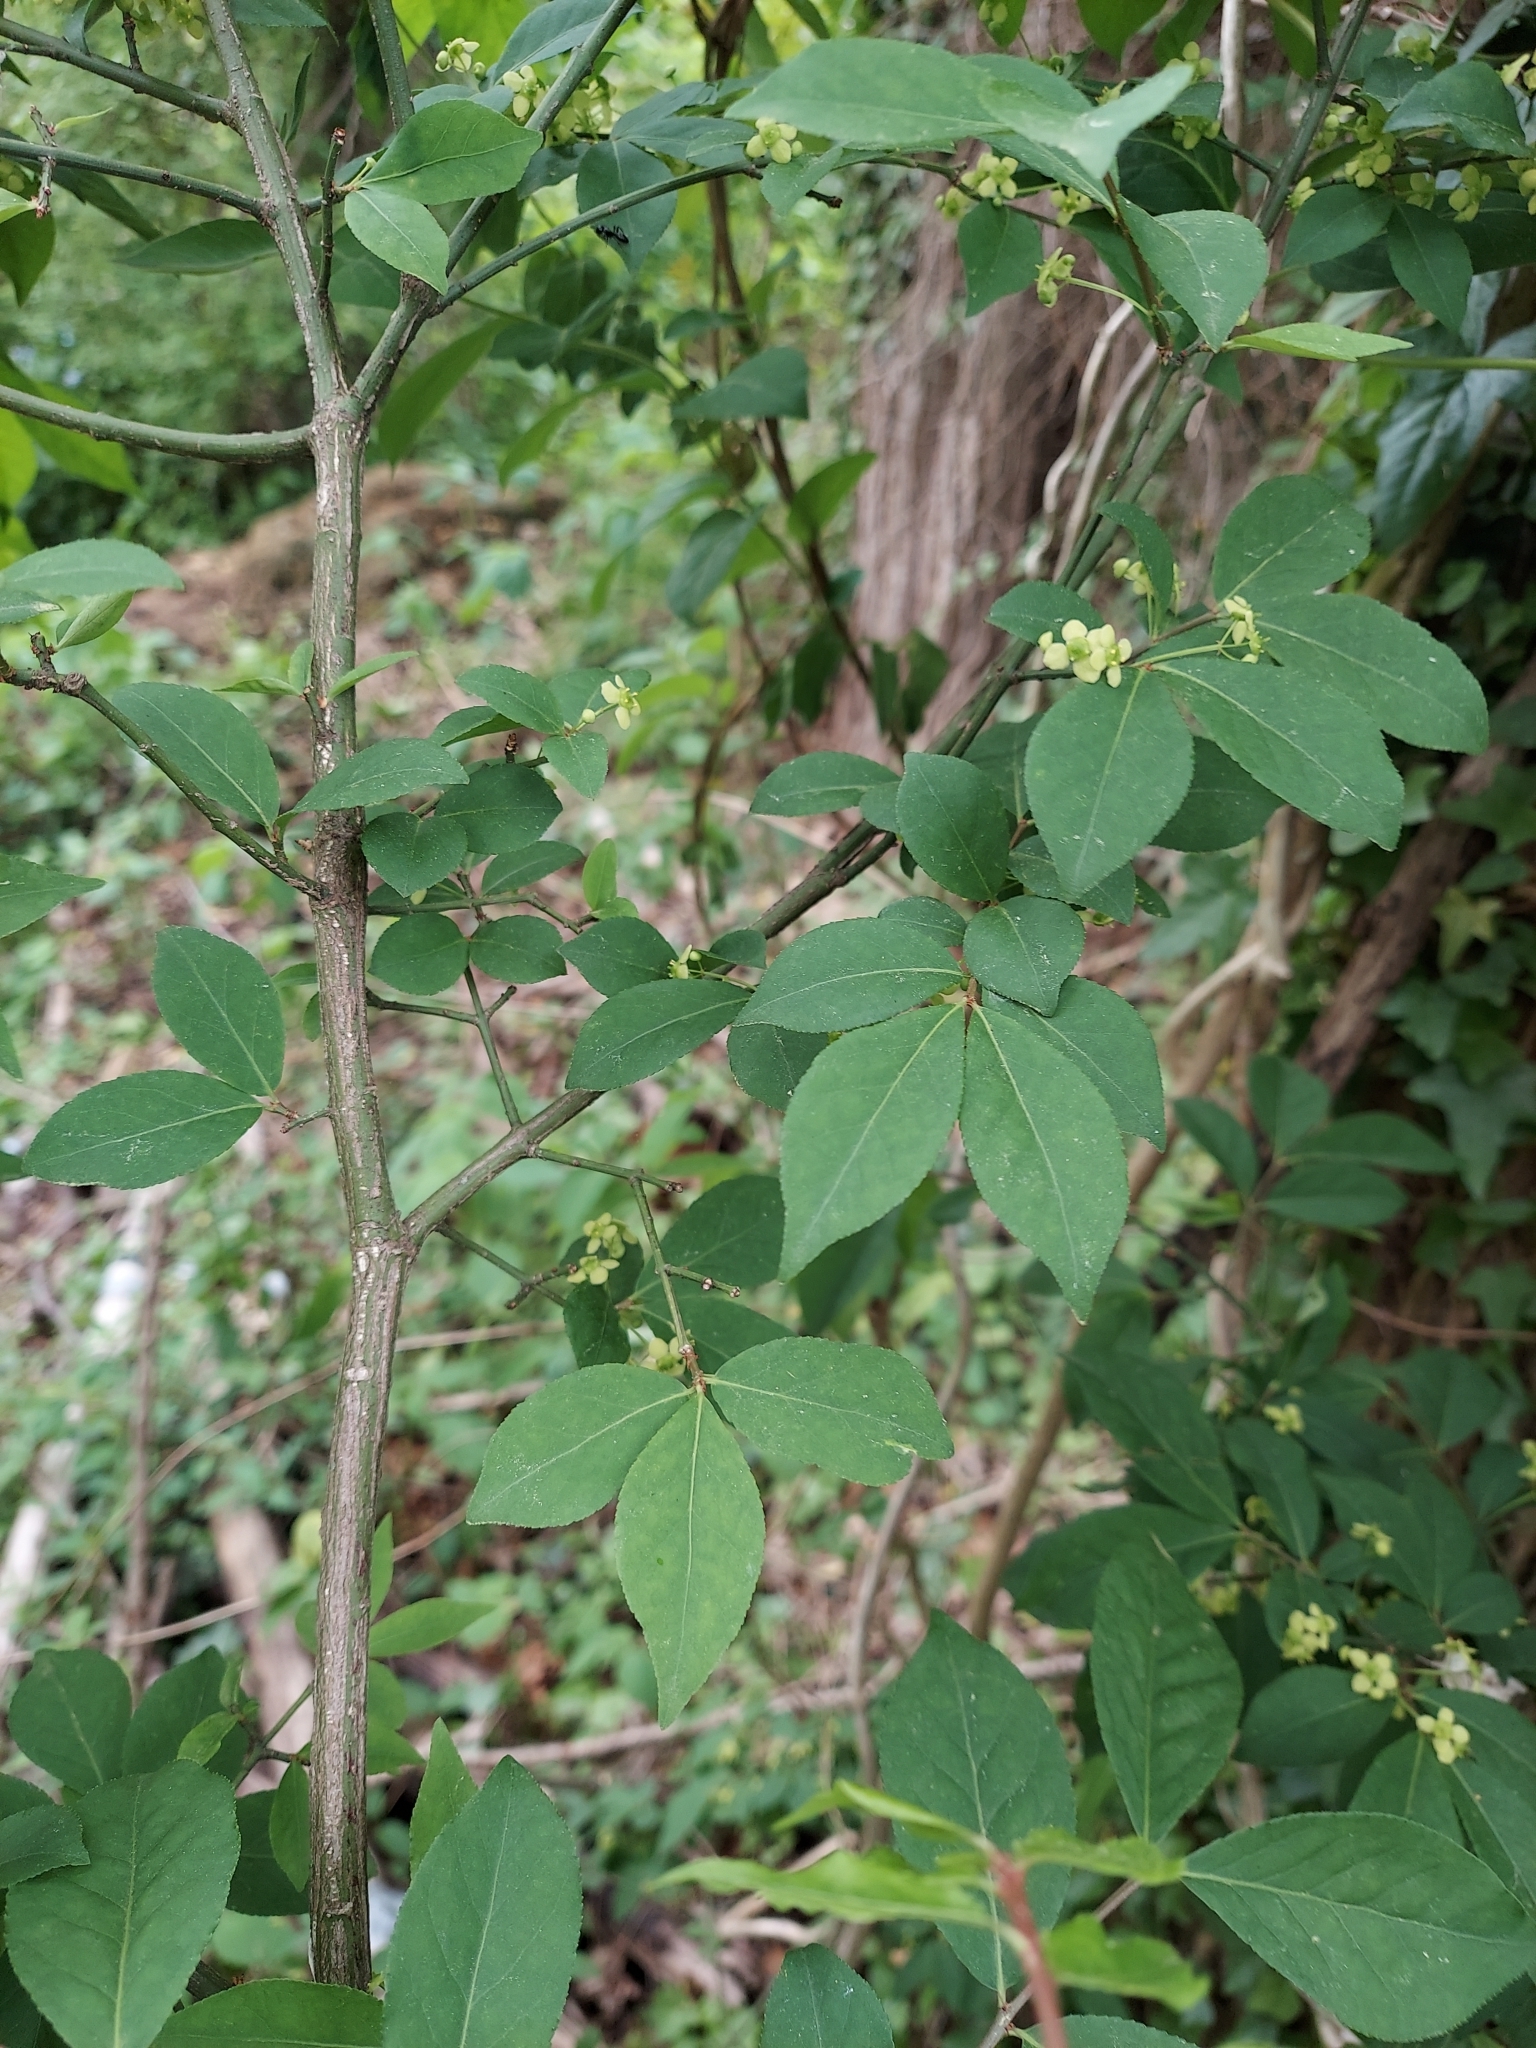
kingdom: Plantae
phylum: Tracheophyta
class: Magnoliopsida
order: Celastrales
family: Celastraceae
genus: Euonymus
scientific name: Euonymus alatus
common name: Winged euonymus
